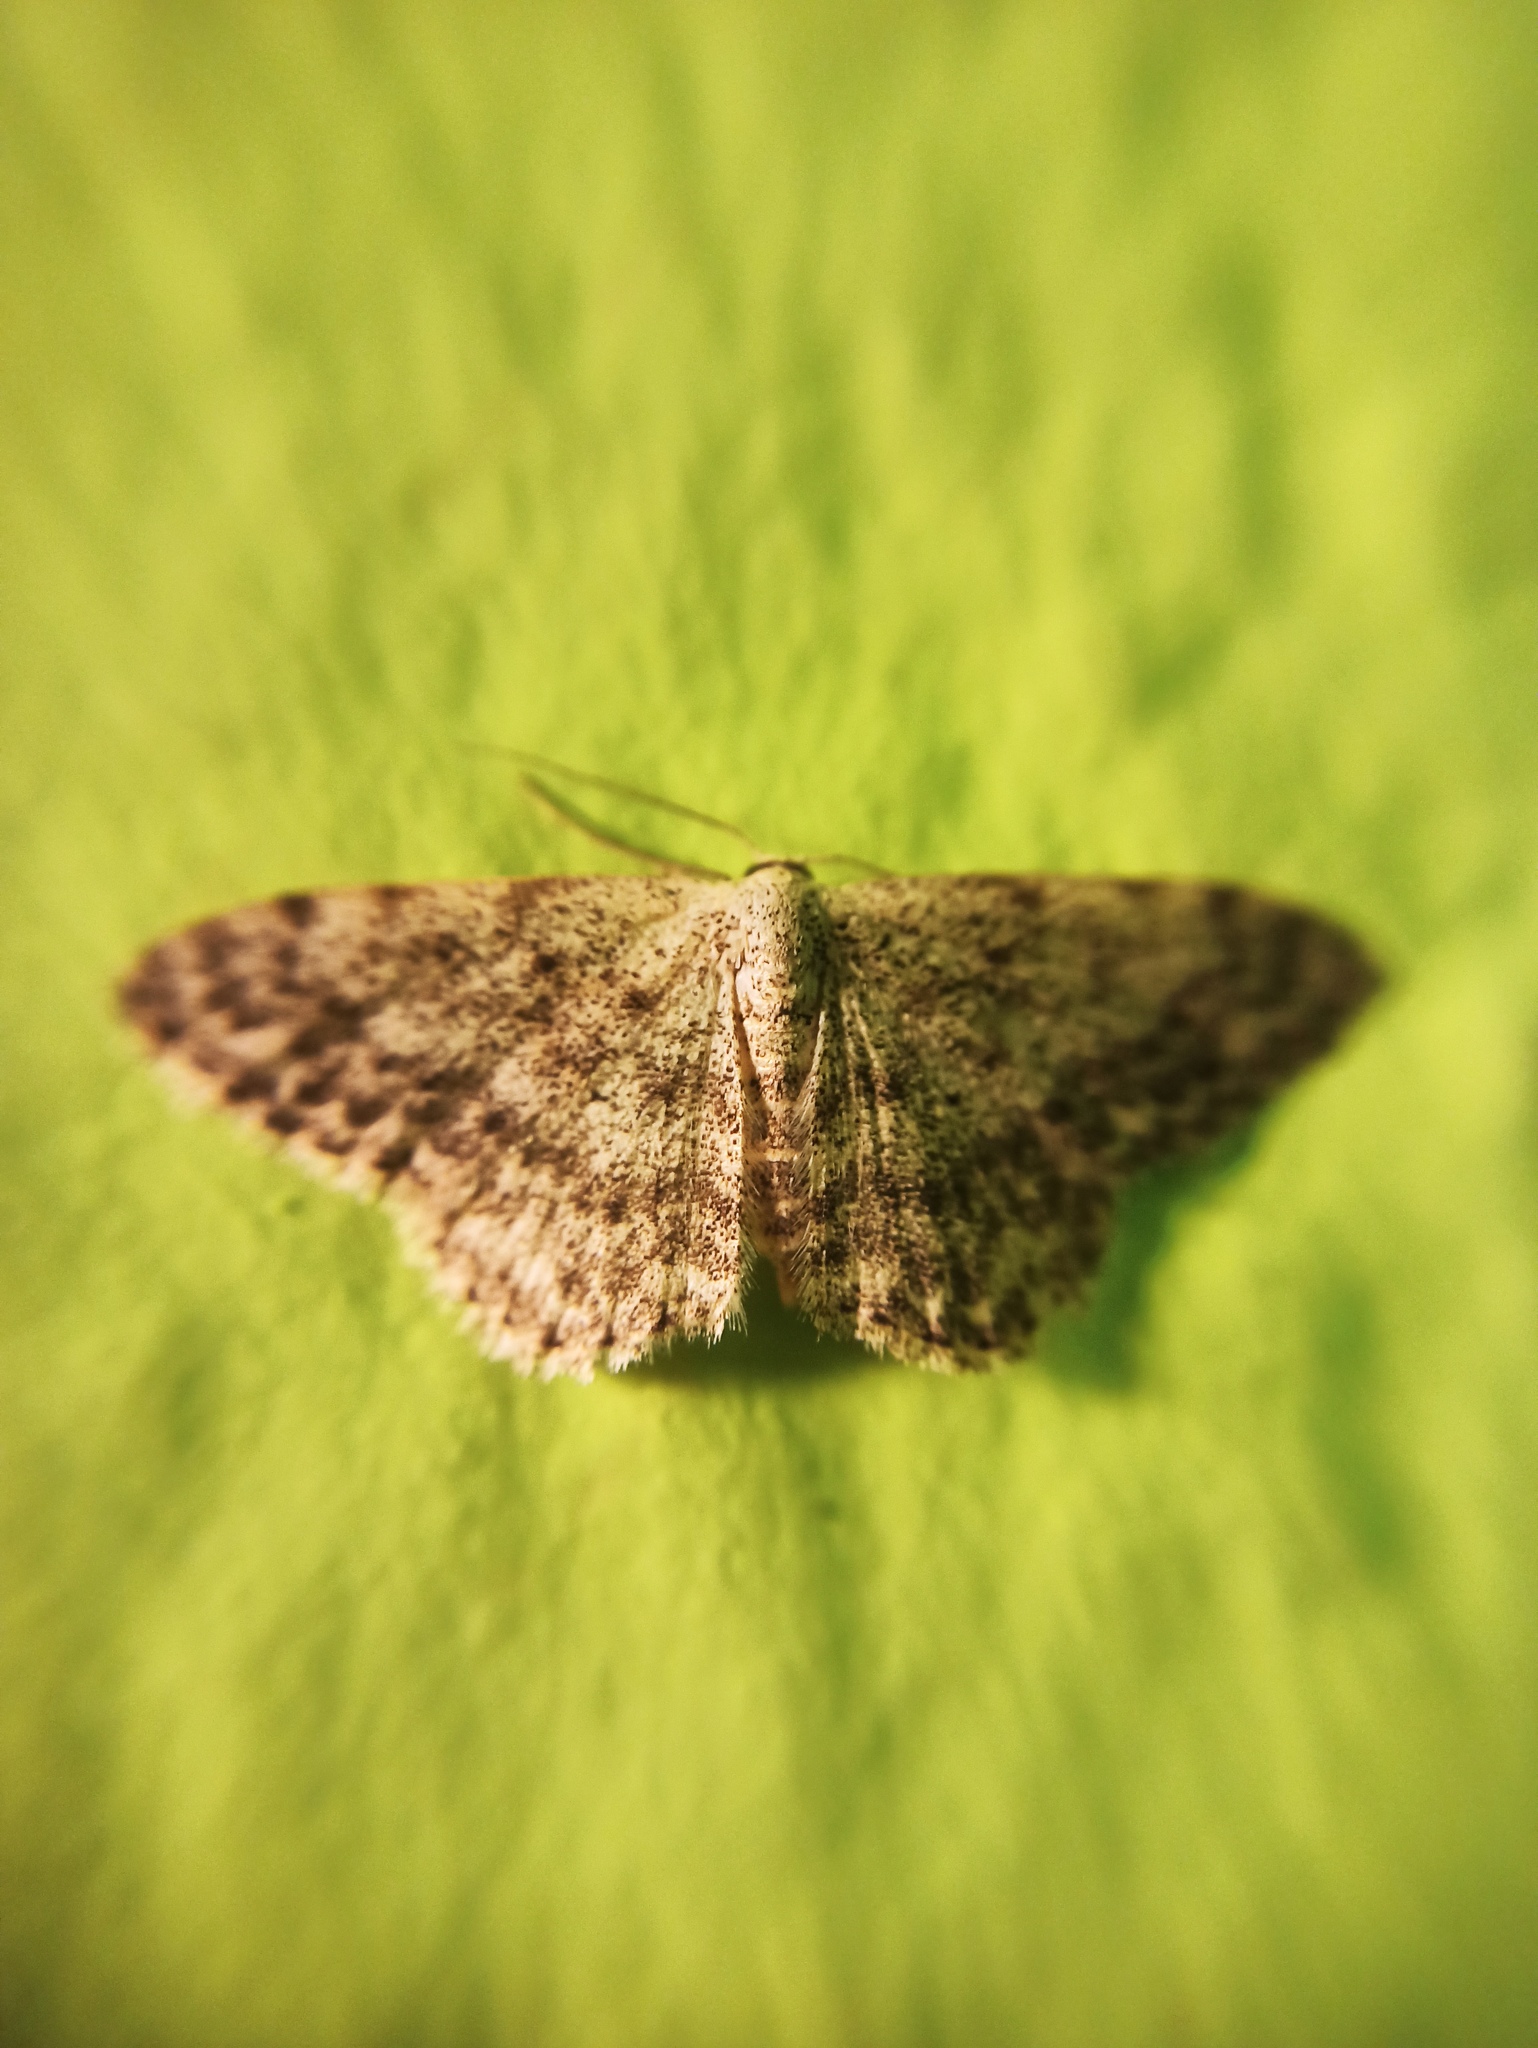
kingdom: Animalia
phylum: Arthropoda
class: Insecta
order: Lepidoptera
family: Geometridae
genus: Scopula
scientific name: Scopula marginepunctata
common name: Mullein wave
